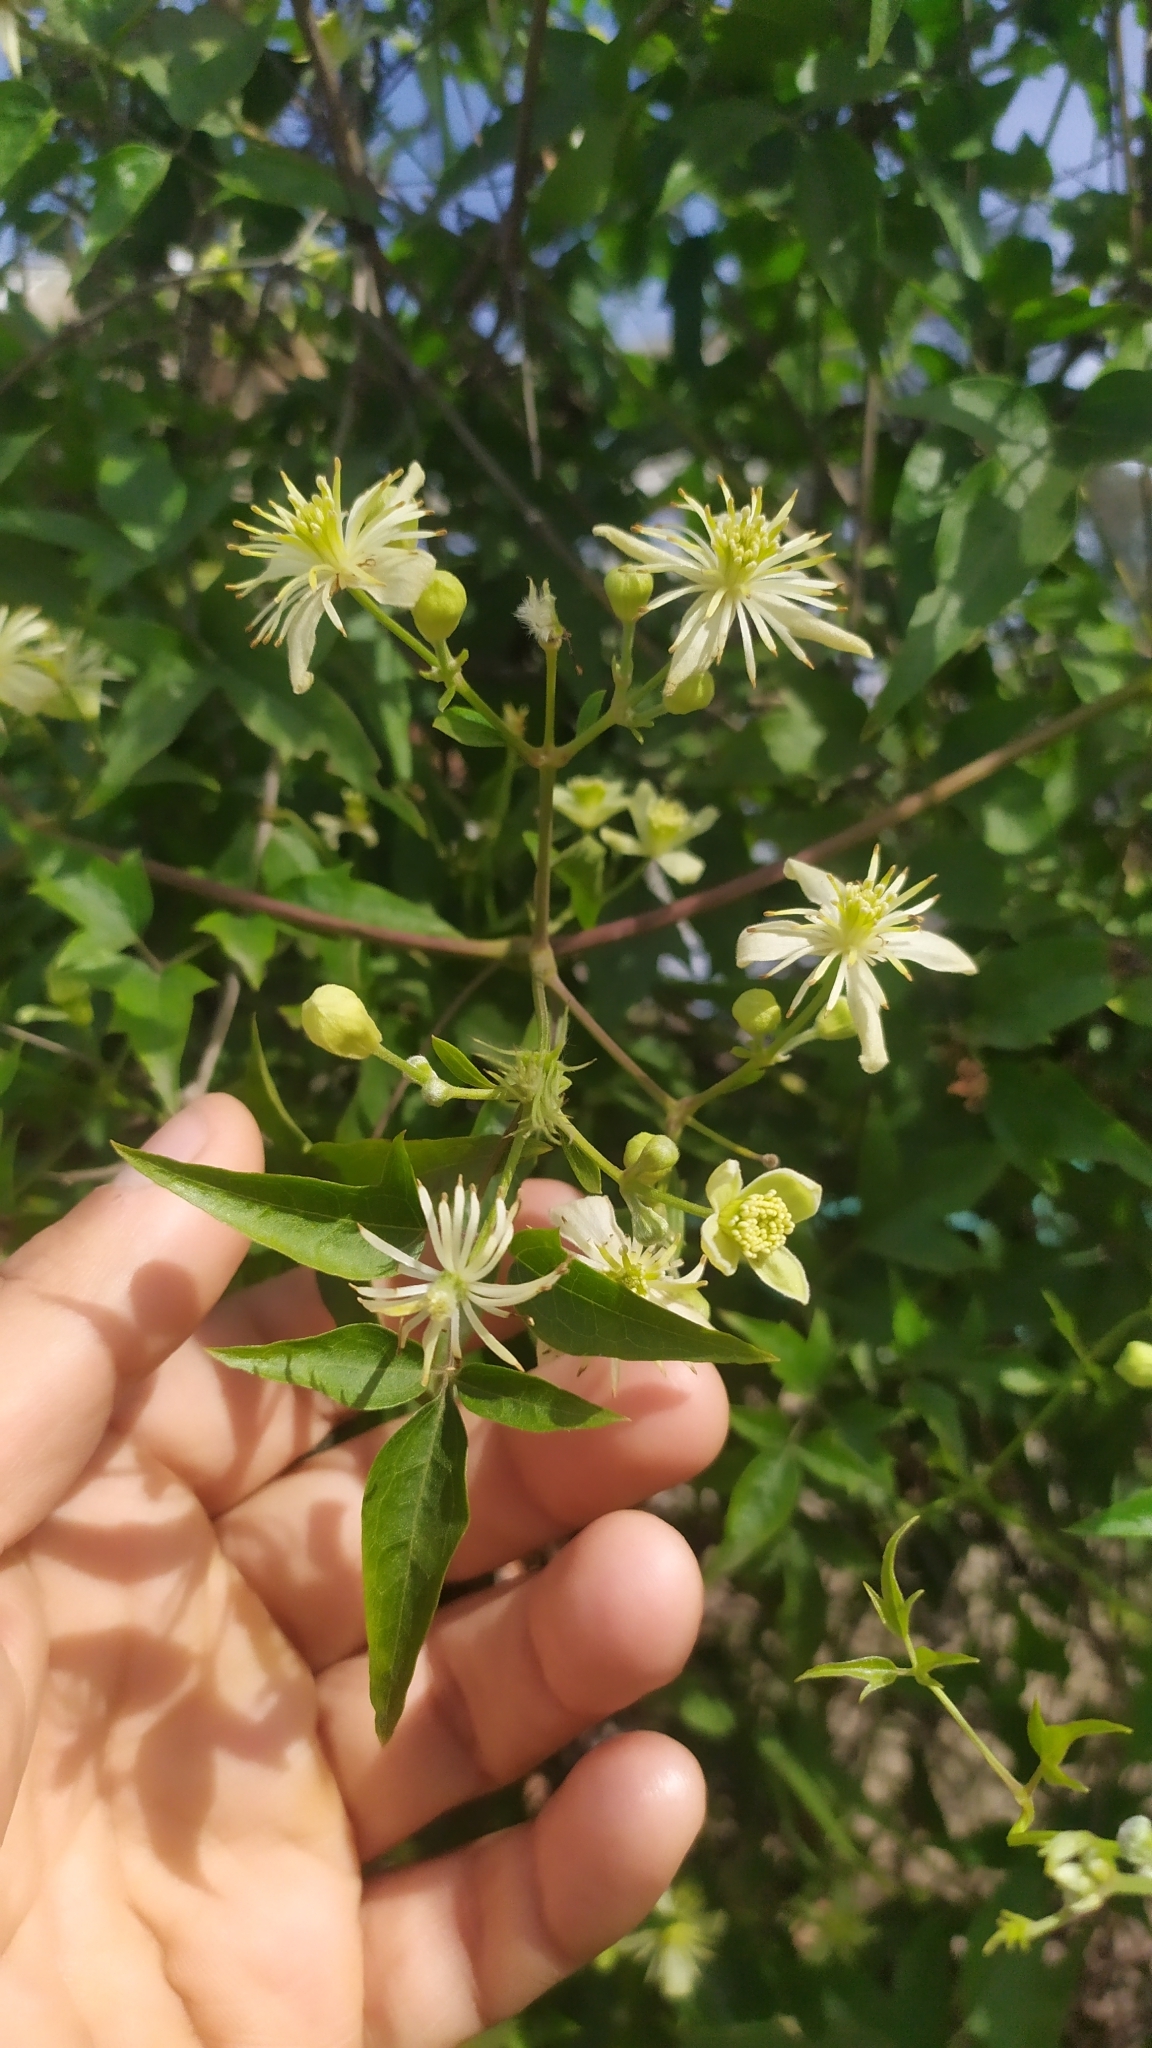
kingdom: Plantae
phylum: Tracheophyta
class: Magnoliopsida
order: Ranunculales
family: Ranunculaceae
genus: Clematis
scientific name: Clematis montevidensis
